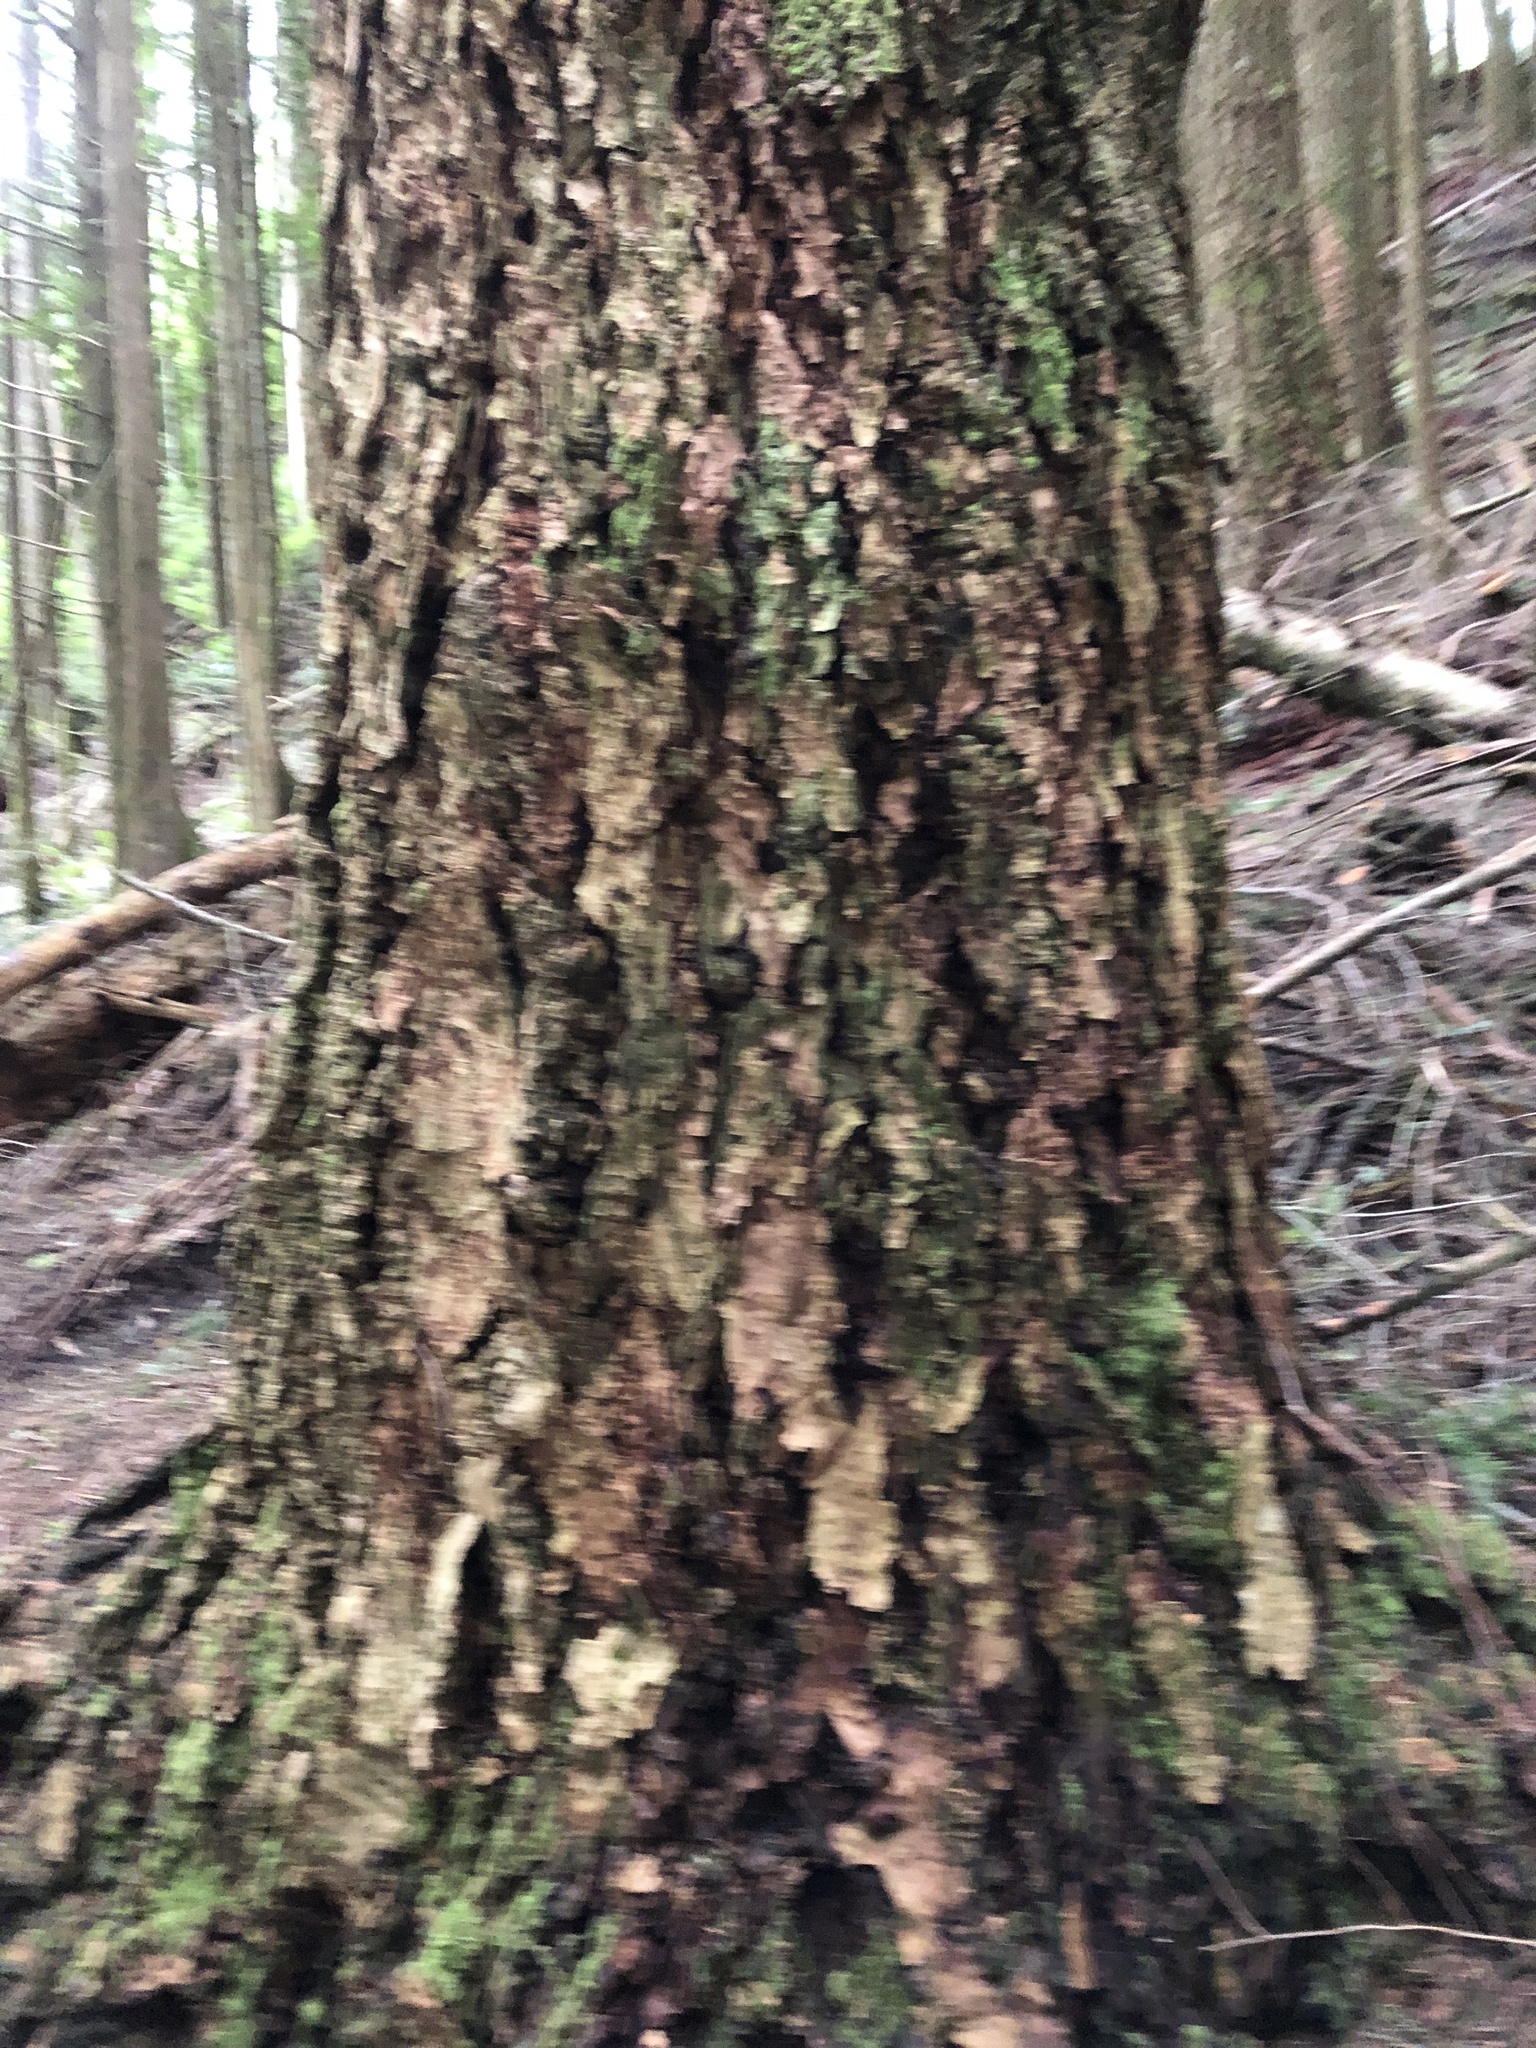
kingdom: Plantae
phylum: Tracheophyta
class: Pinopsida
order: Pinales
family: Pinaceae
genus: Pseudotsuga
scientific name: Pseudotsuga menziesii
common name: Douglas fir
